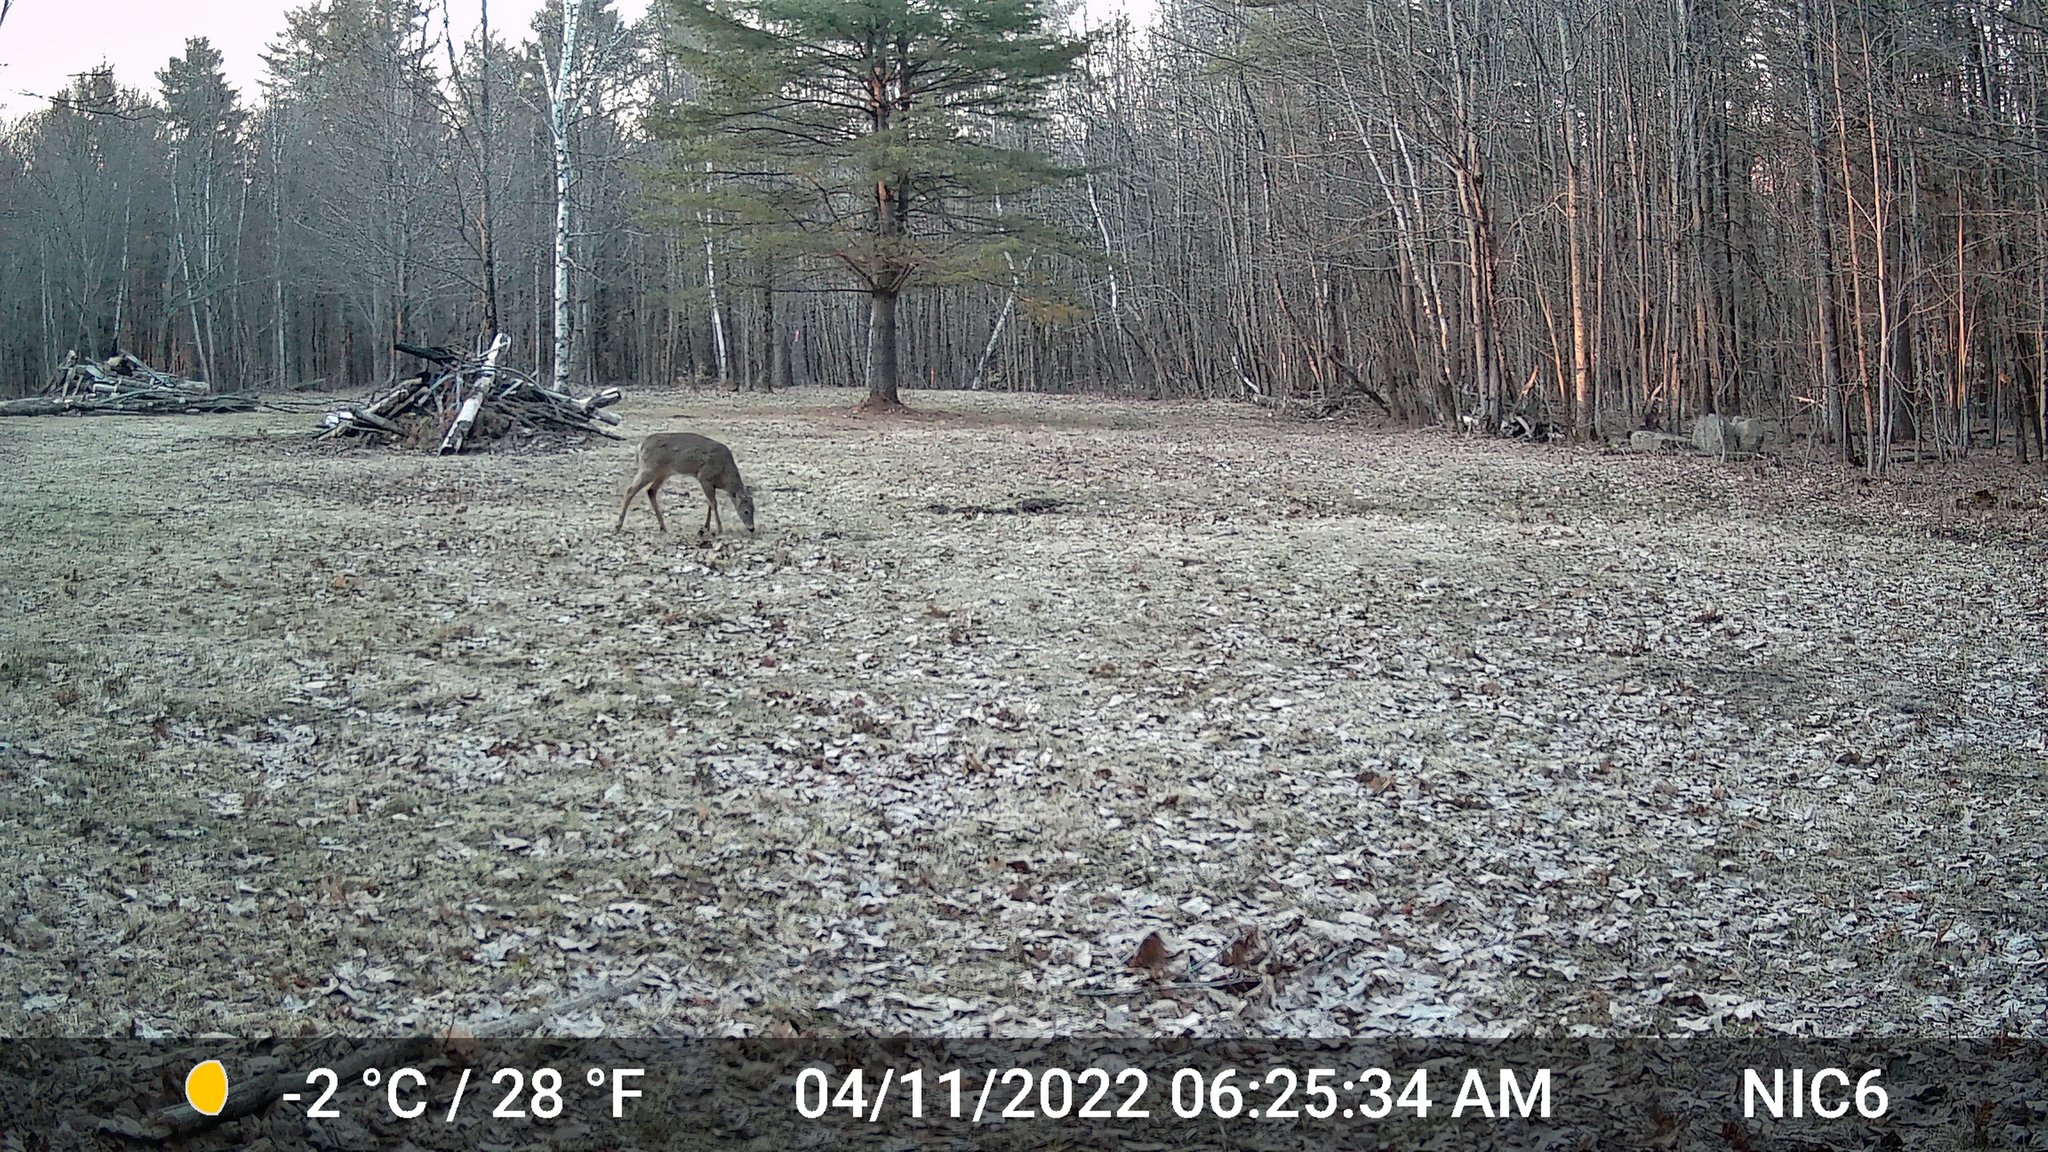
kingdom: Animalia
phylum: Chordata
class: Mammalia
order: Artiodactyla
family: Cervidae
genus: Odocoileus
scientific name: Odocoileus virginianus
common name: White-tailed deer
